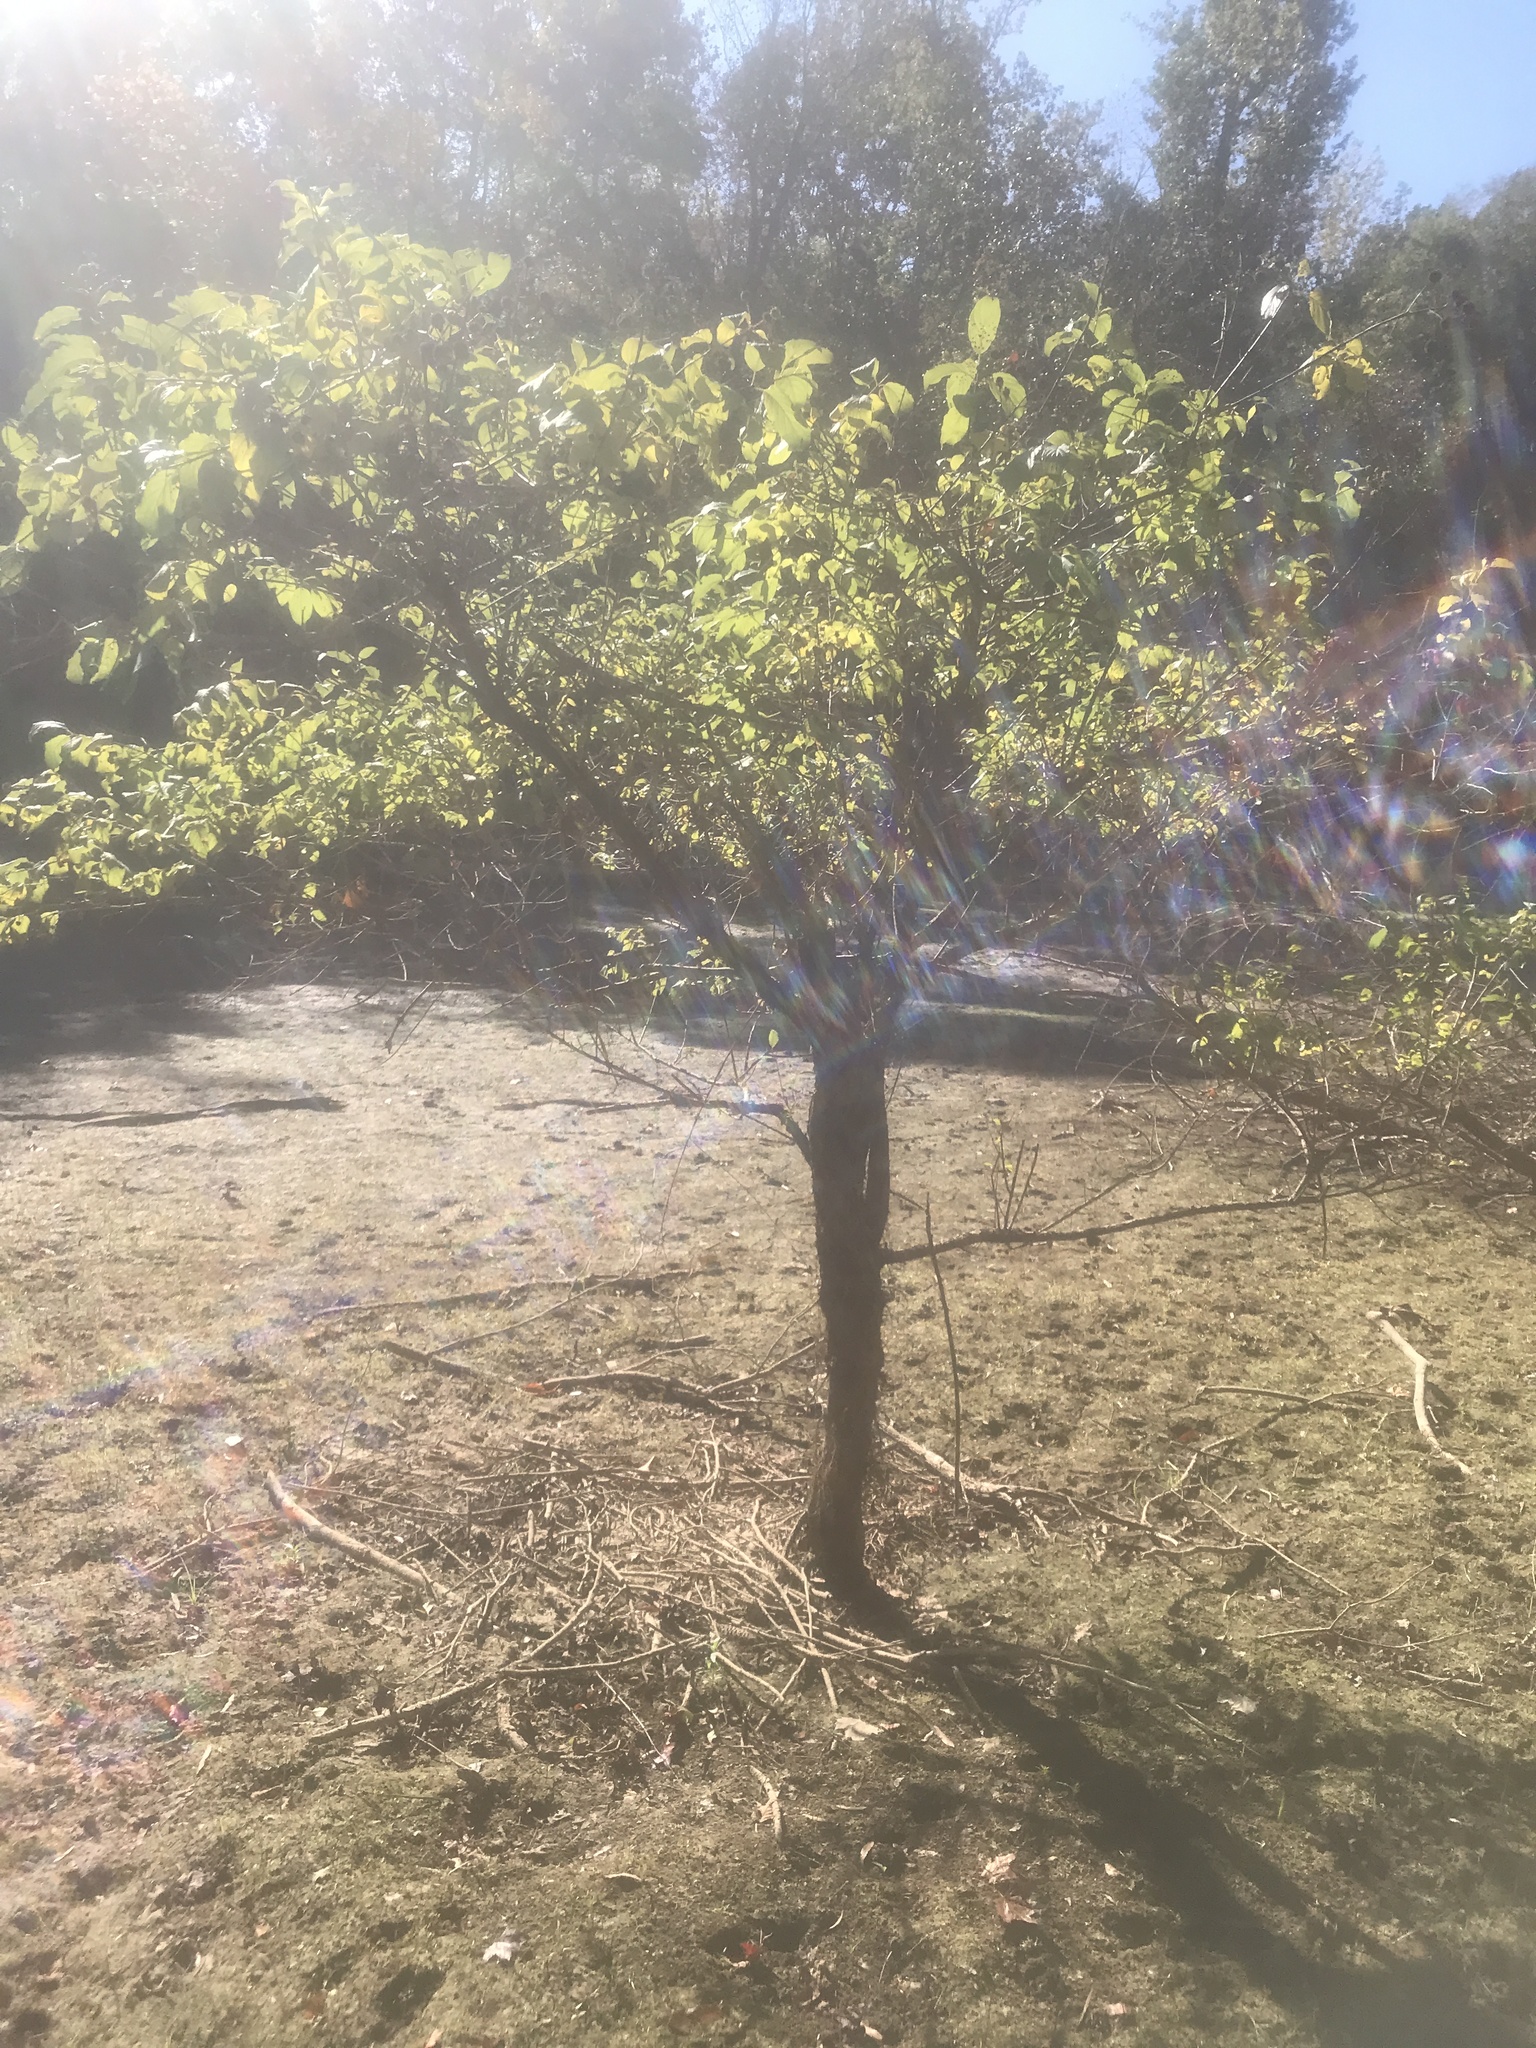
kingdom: Plantae
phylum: Tracheophyta
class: Magnoliopsida
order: Gentianales
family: Rubiaceae
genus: Cephalanthus
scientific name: Cephalanthus occidentalis
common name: Button-willow
